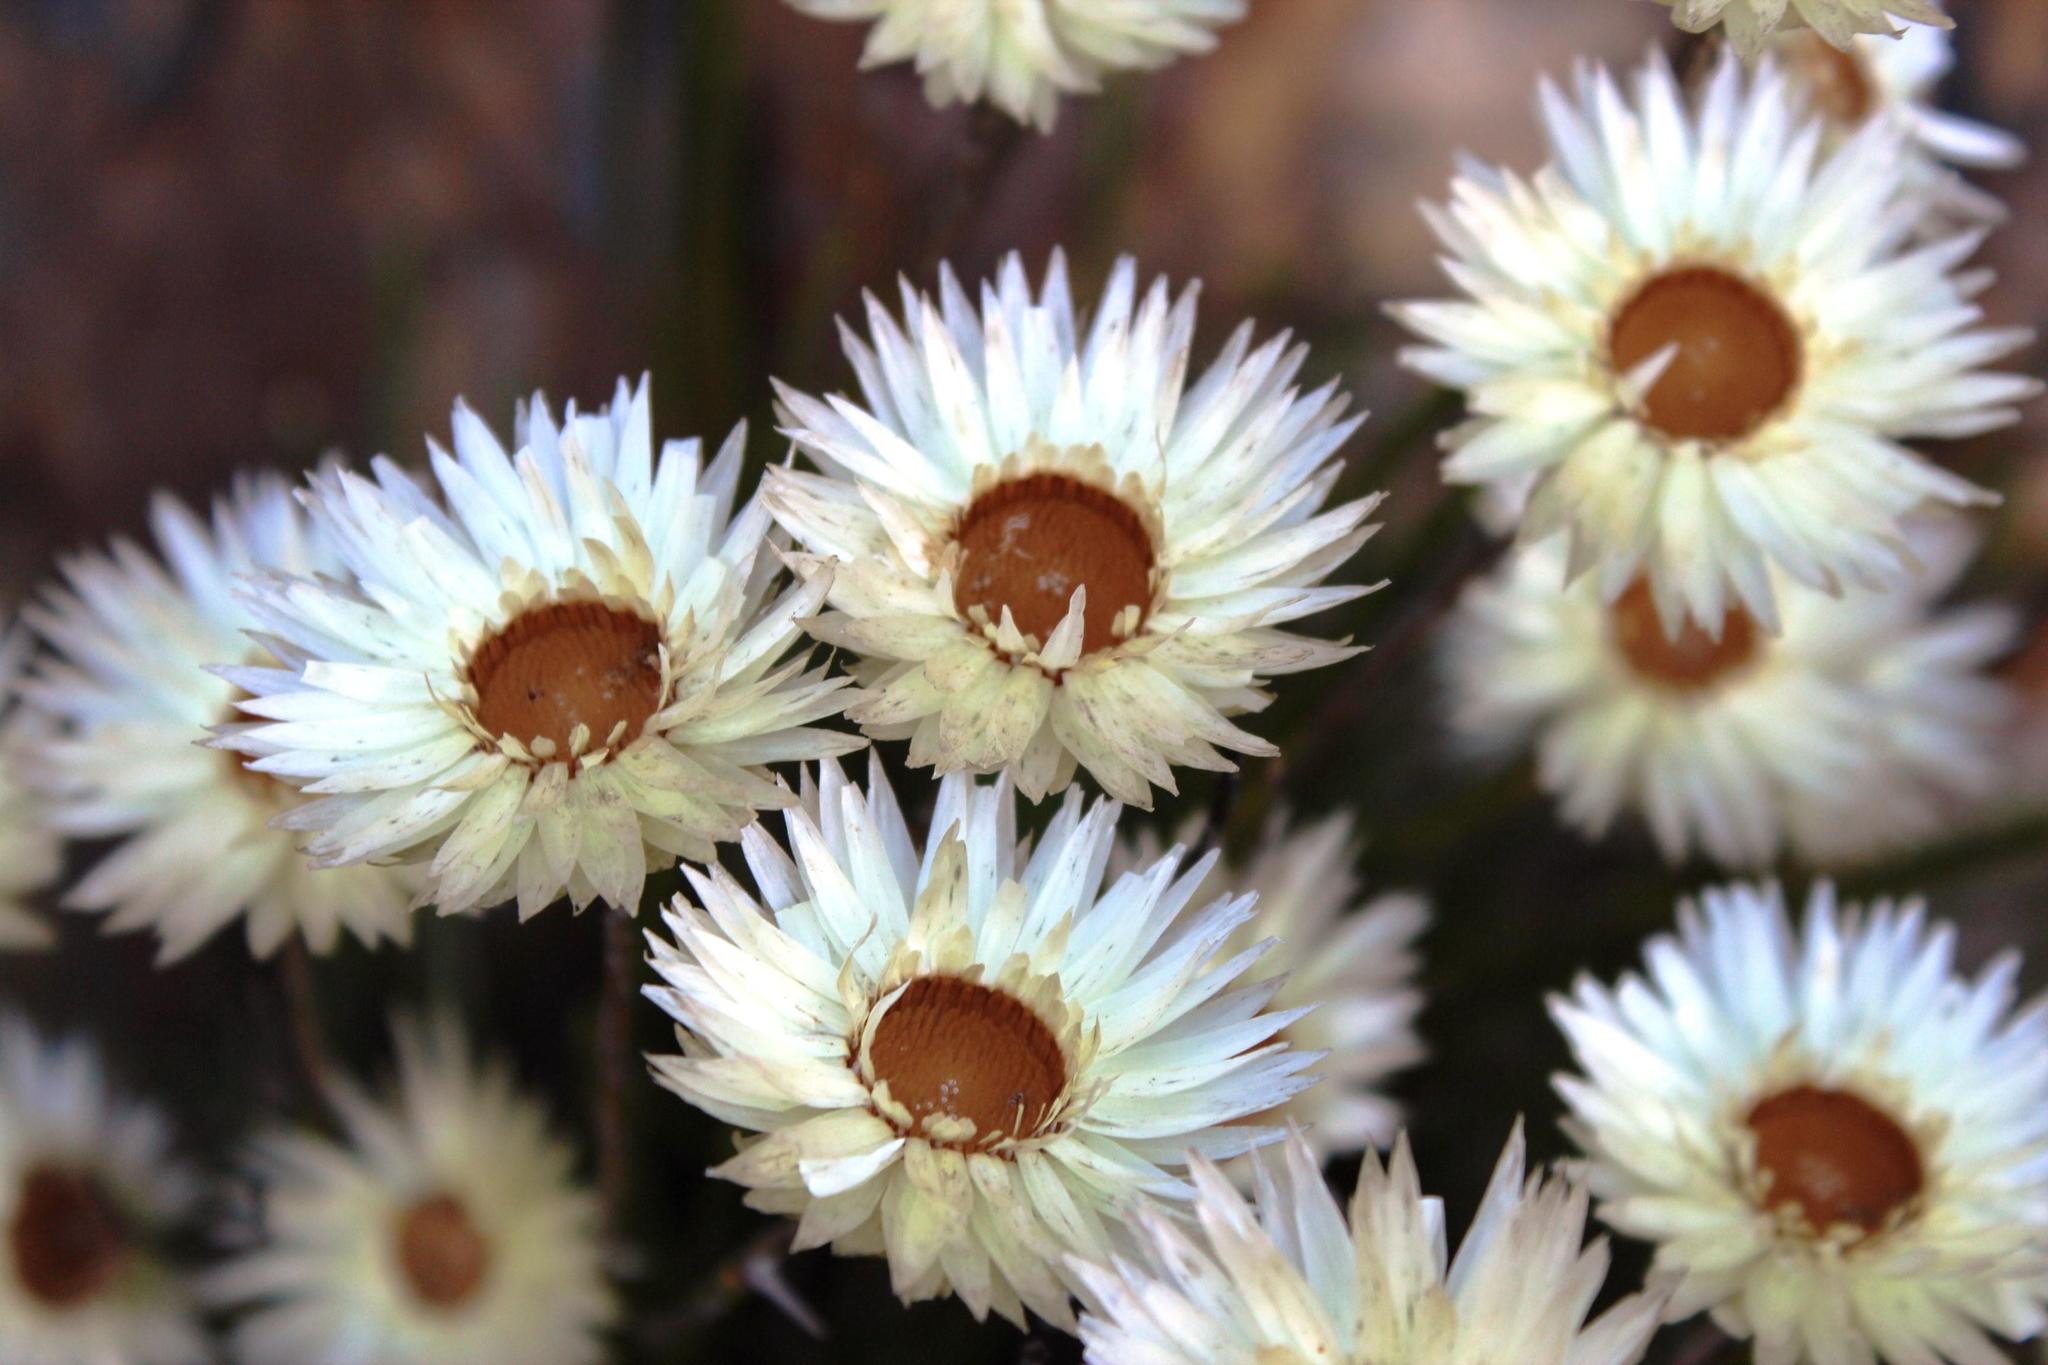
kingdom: Plantae
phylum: Tracheophyta
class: Magnoliopsida
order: Asterales
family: Asteraceae
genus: Edmondia
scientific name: Edmondia sesamoides
